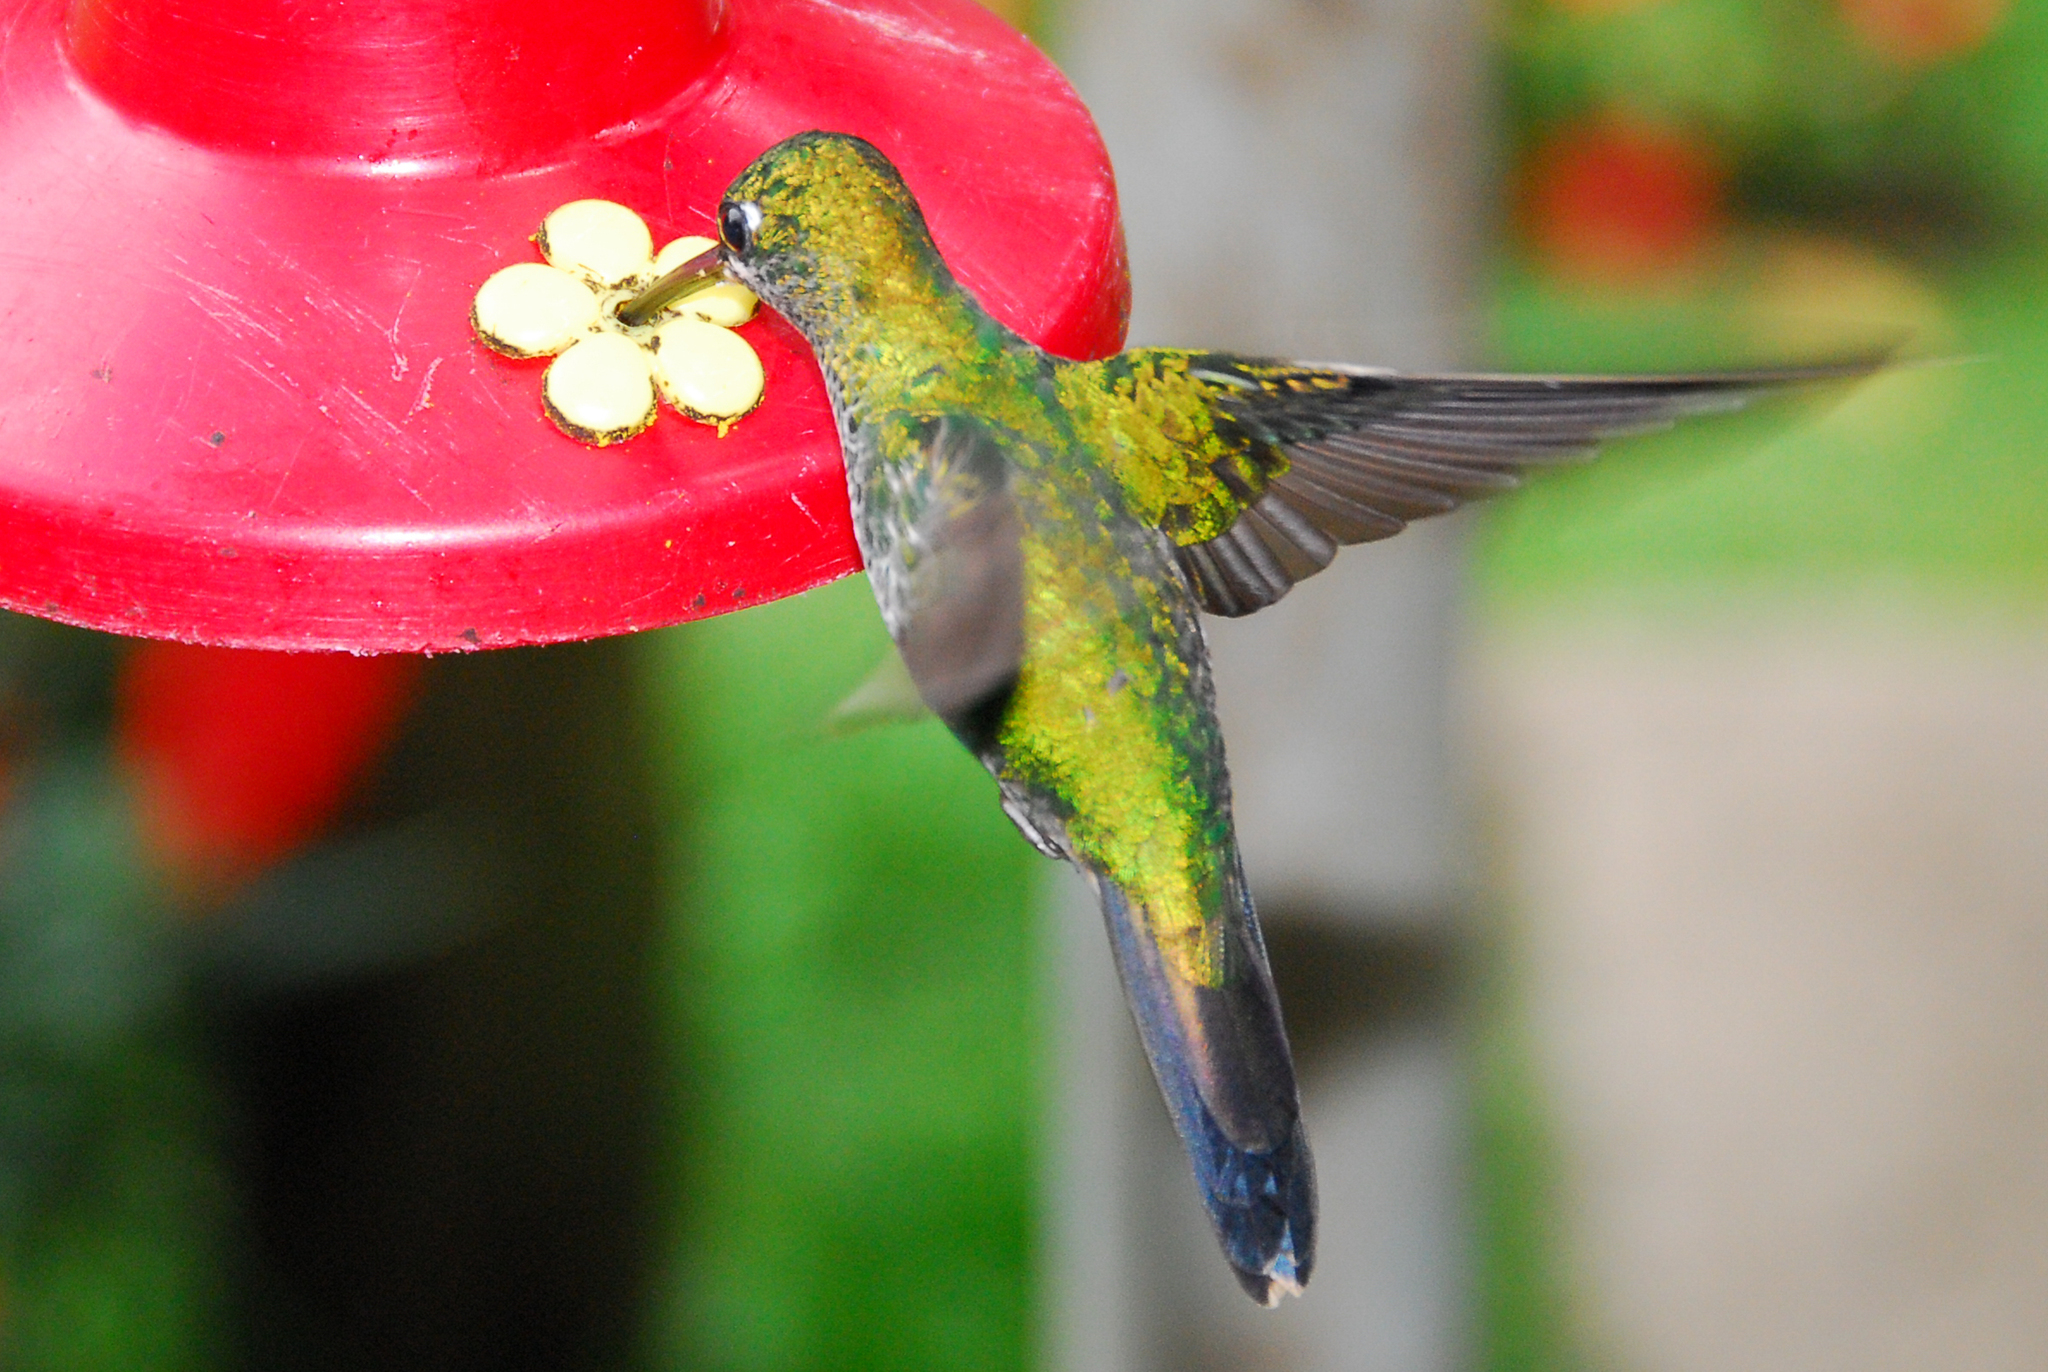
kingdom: Animalia
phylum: Chordata
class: Aves
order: Apodiformes
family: Trochilidae
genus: Heliodoxa
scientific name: Heliodoxa jacula
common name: Green-crowned brilliant
